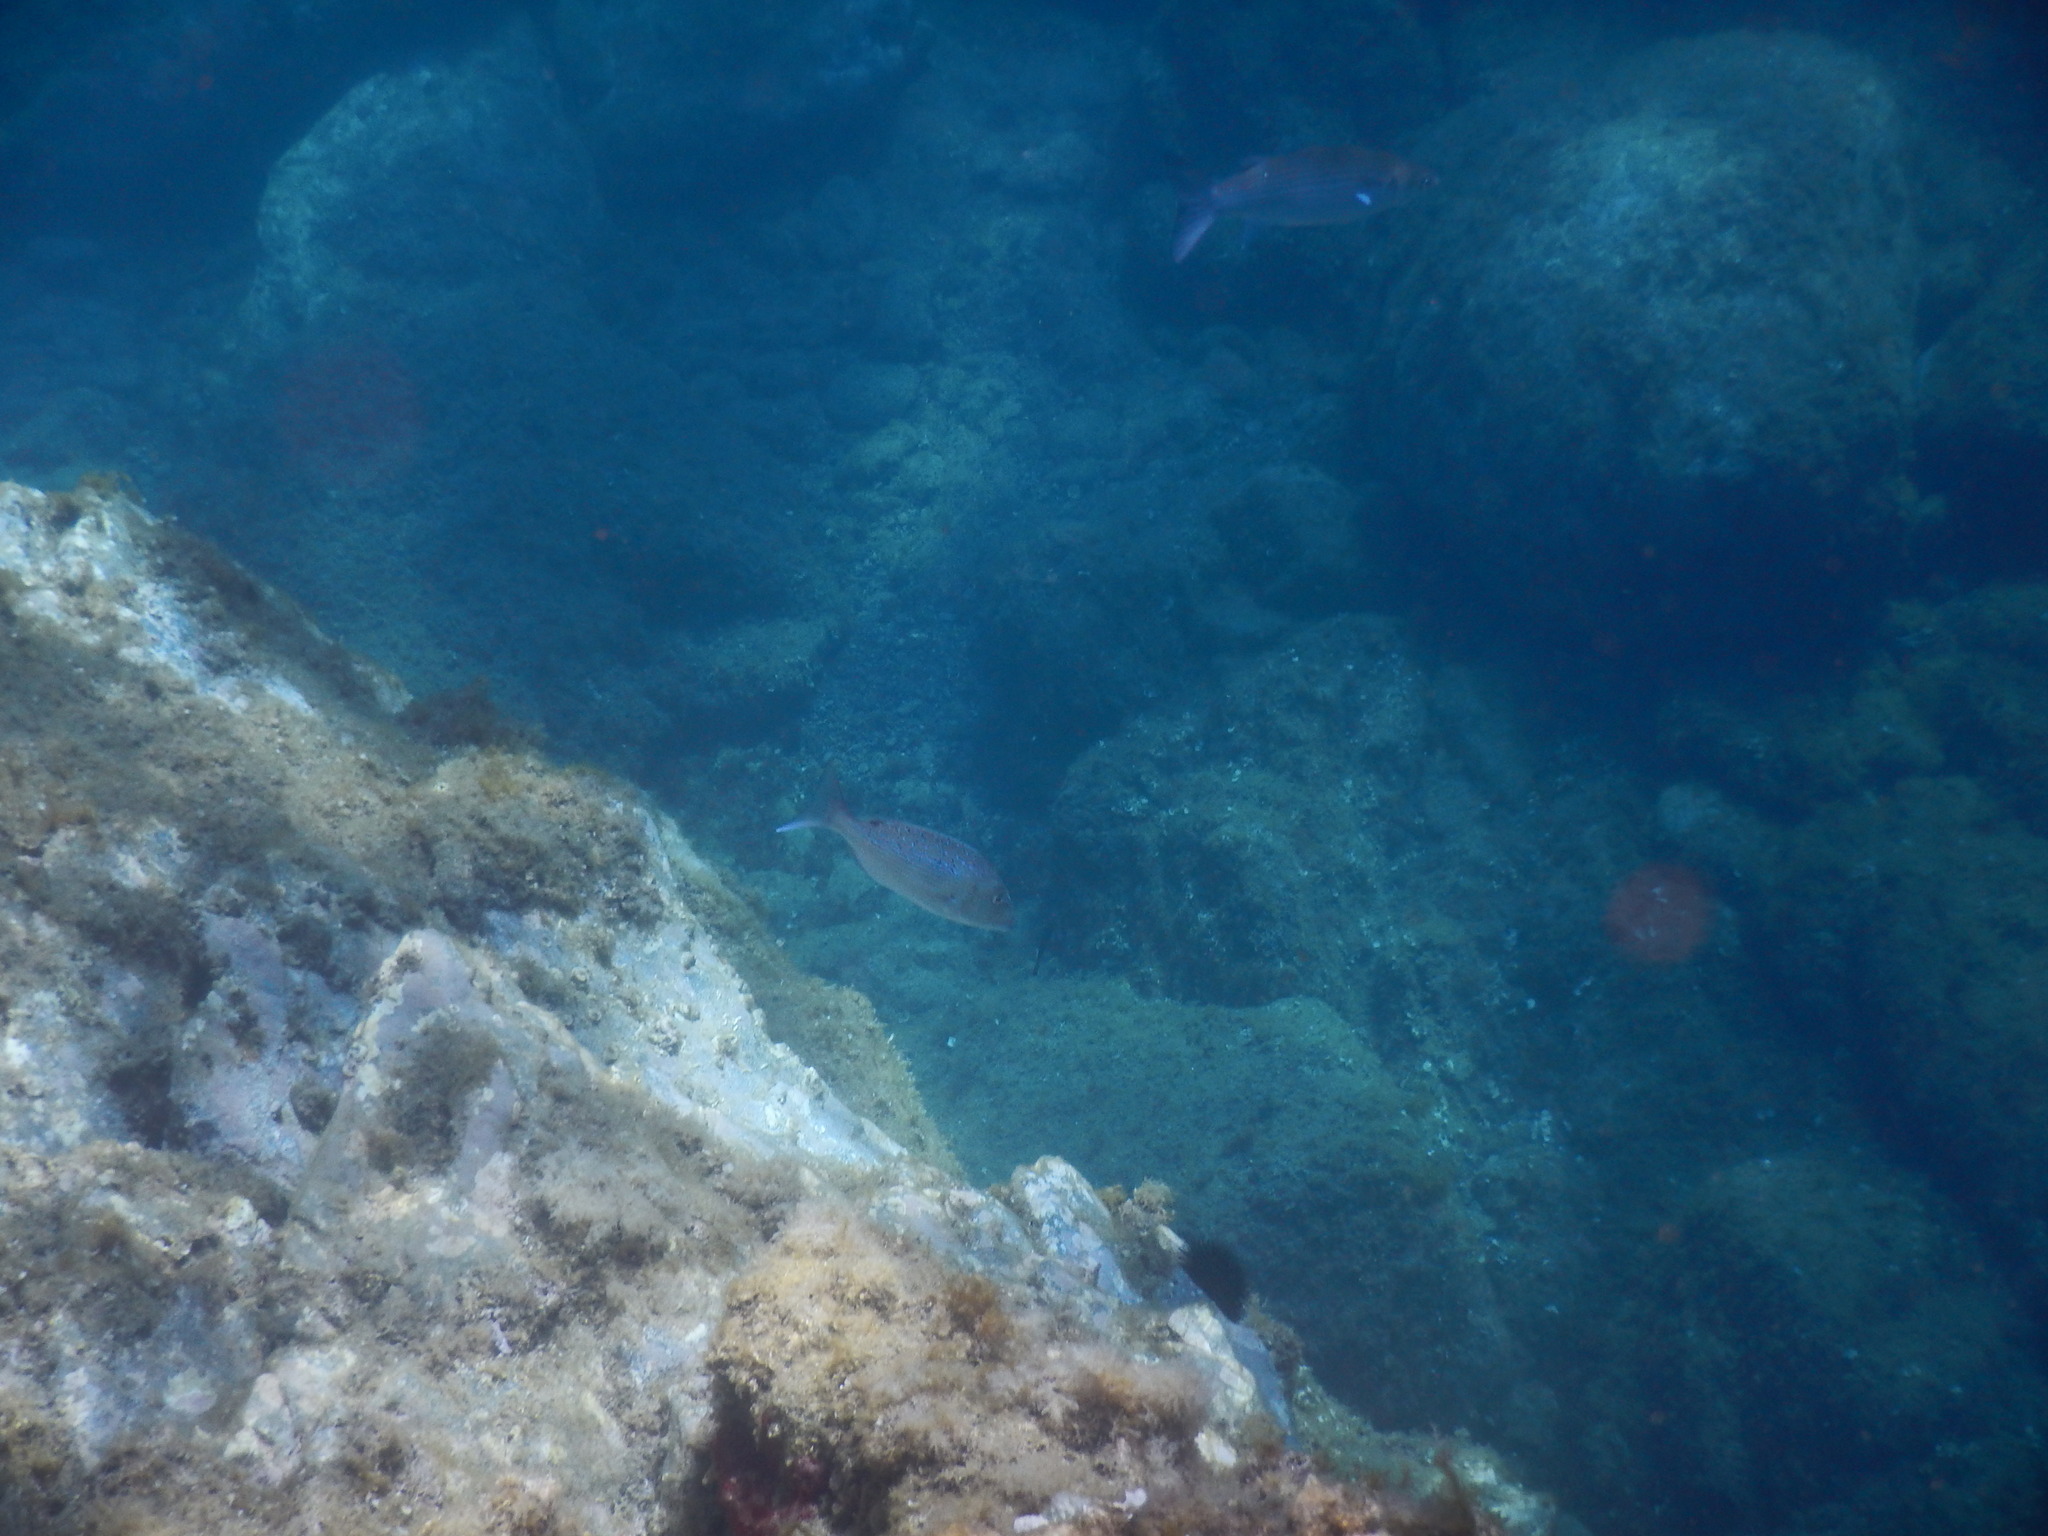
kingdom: Animalia
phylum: Chordata
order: Perciformes
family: Sparidae
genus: Dentex
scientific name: Dentex dentex
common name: Dentex
